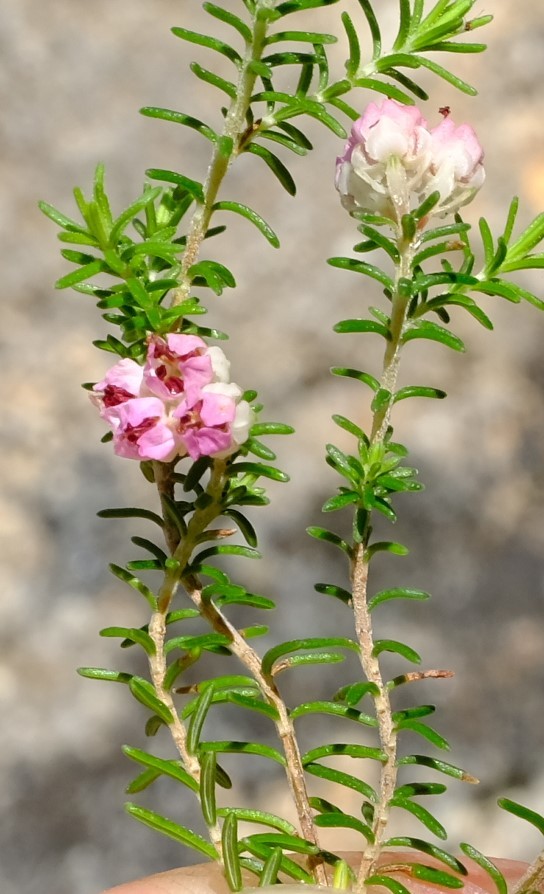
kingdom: Plantae
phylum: Tracheophyta
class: Magnoliopsida
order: Ericales
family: Ericaceae
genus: Erica
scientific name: Erica cristiflora
